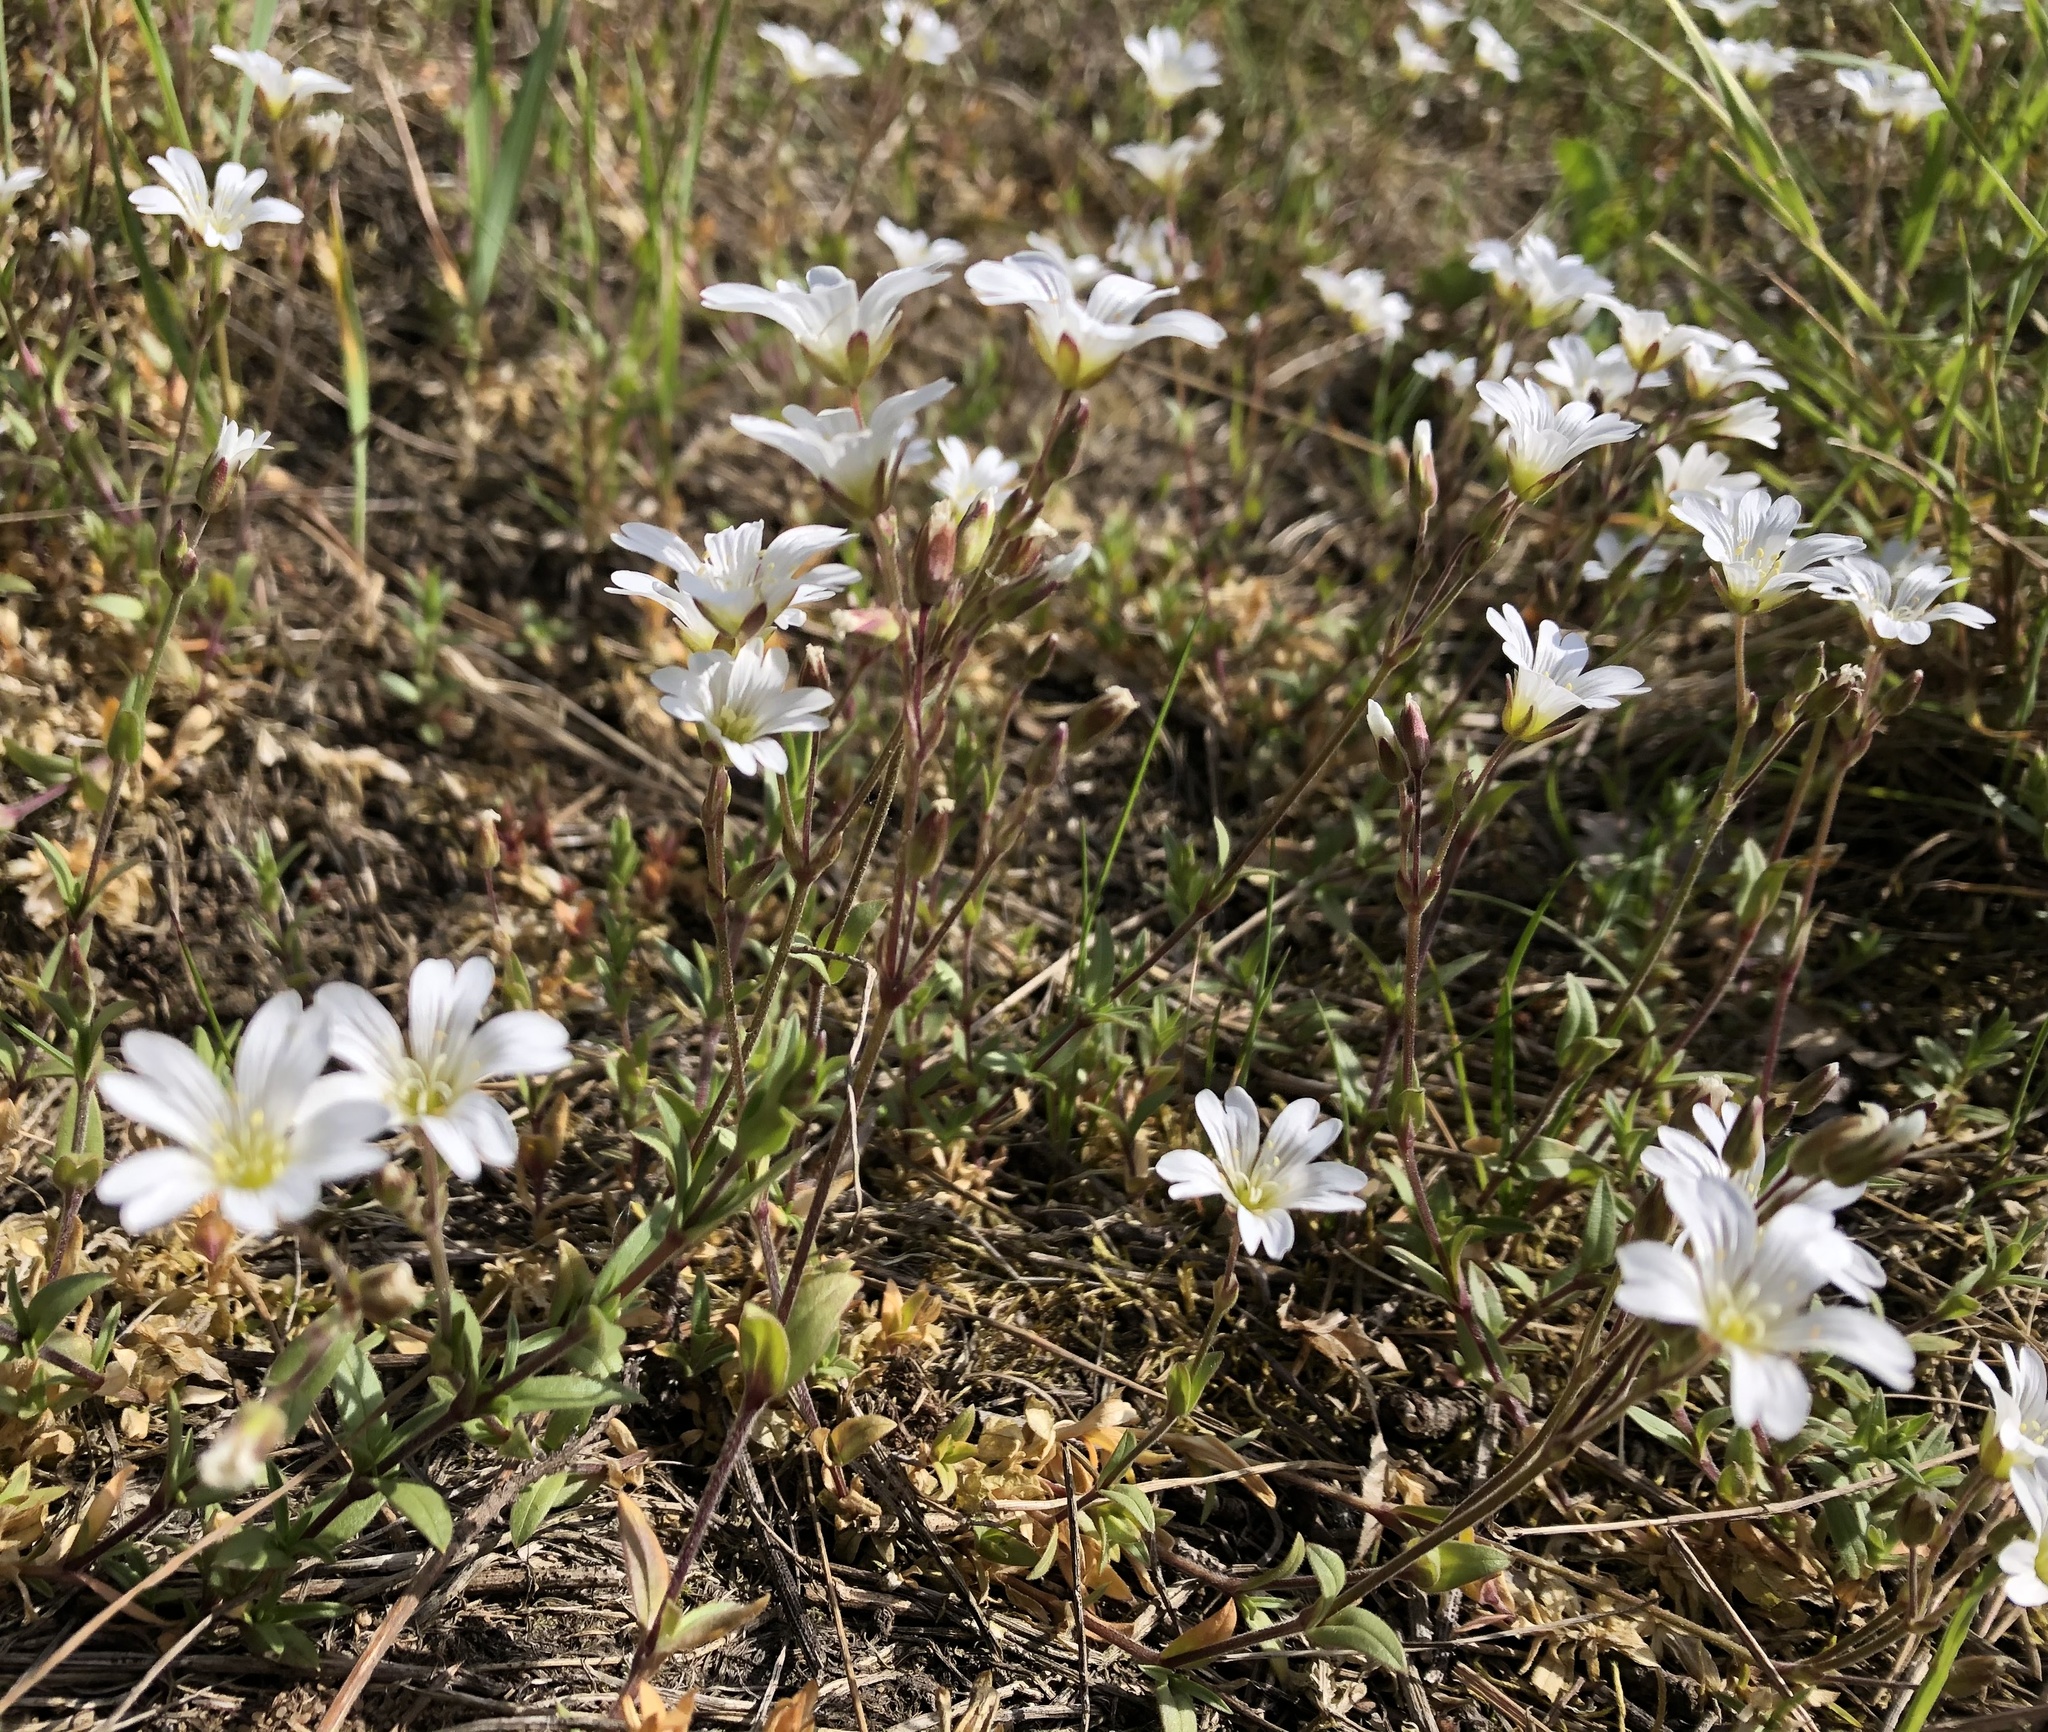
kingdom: Plantae
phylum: Tracheophyta
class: Magnoliopsida
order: Caryophyllales
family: Caryophyllaceae
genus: Cerastium
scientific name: Cerastium arvense
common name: Field mouse-ear
